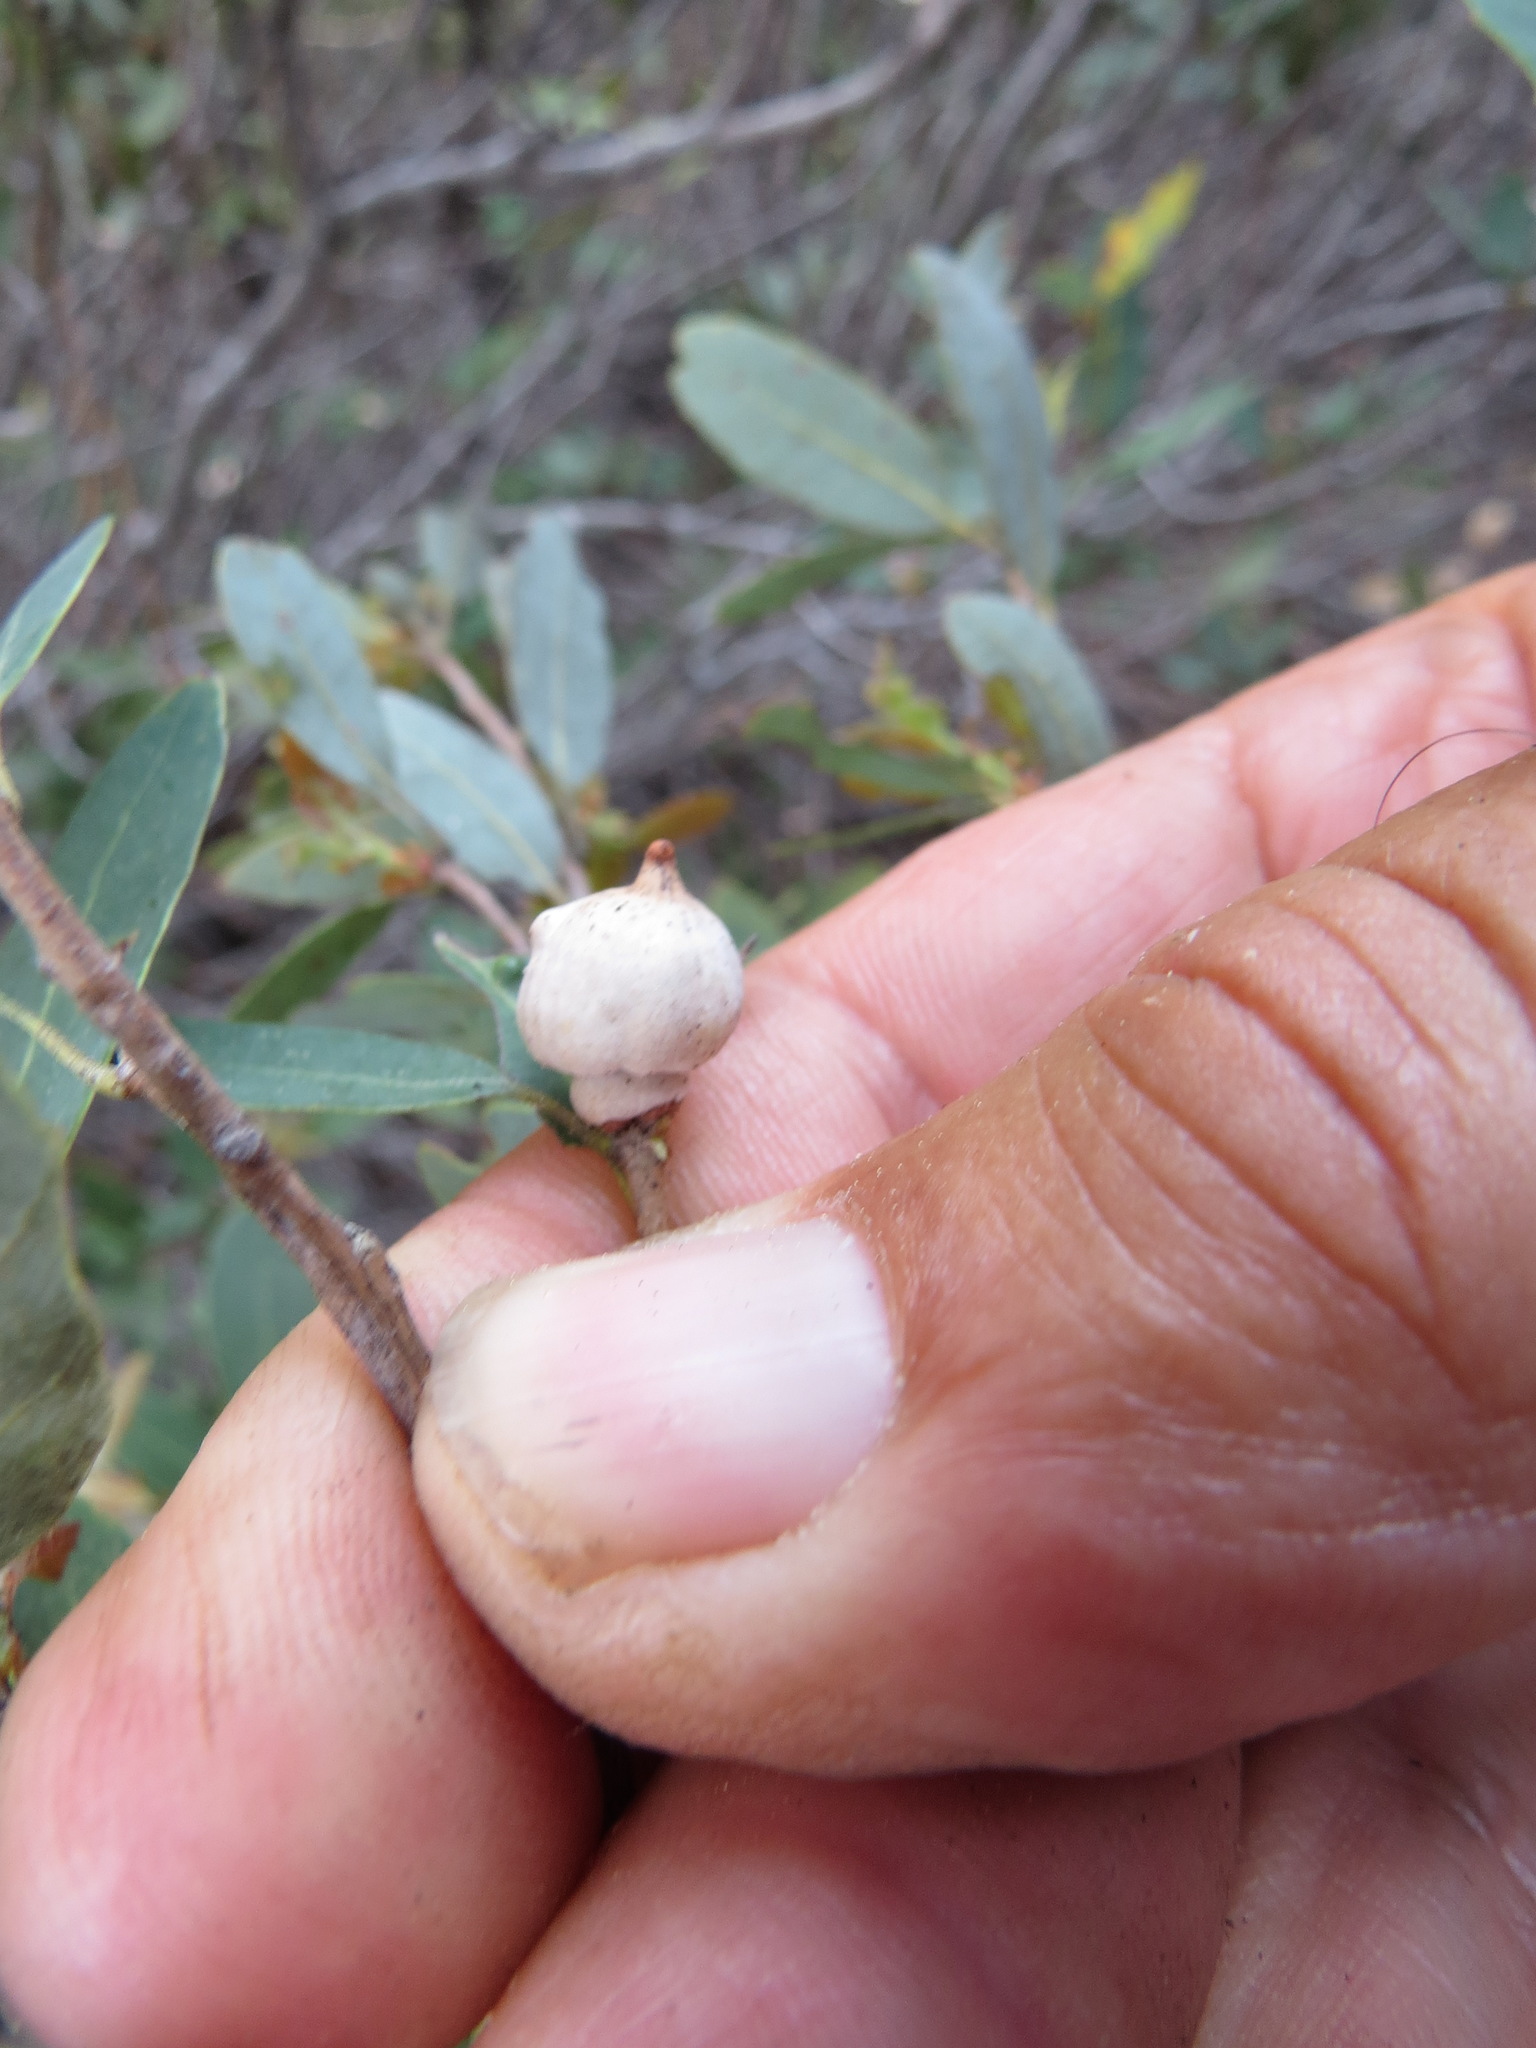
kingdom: Animalia
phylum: Arthropoda
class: Insecta
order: Hymenoptera
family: Cynipidae
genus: Heteroecus
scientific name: Heteroecus
